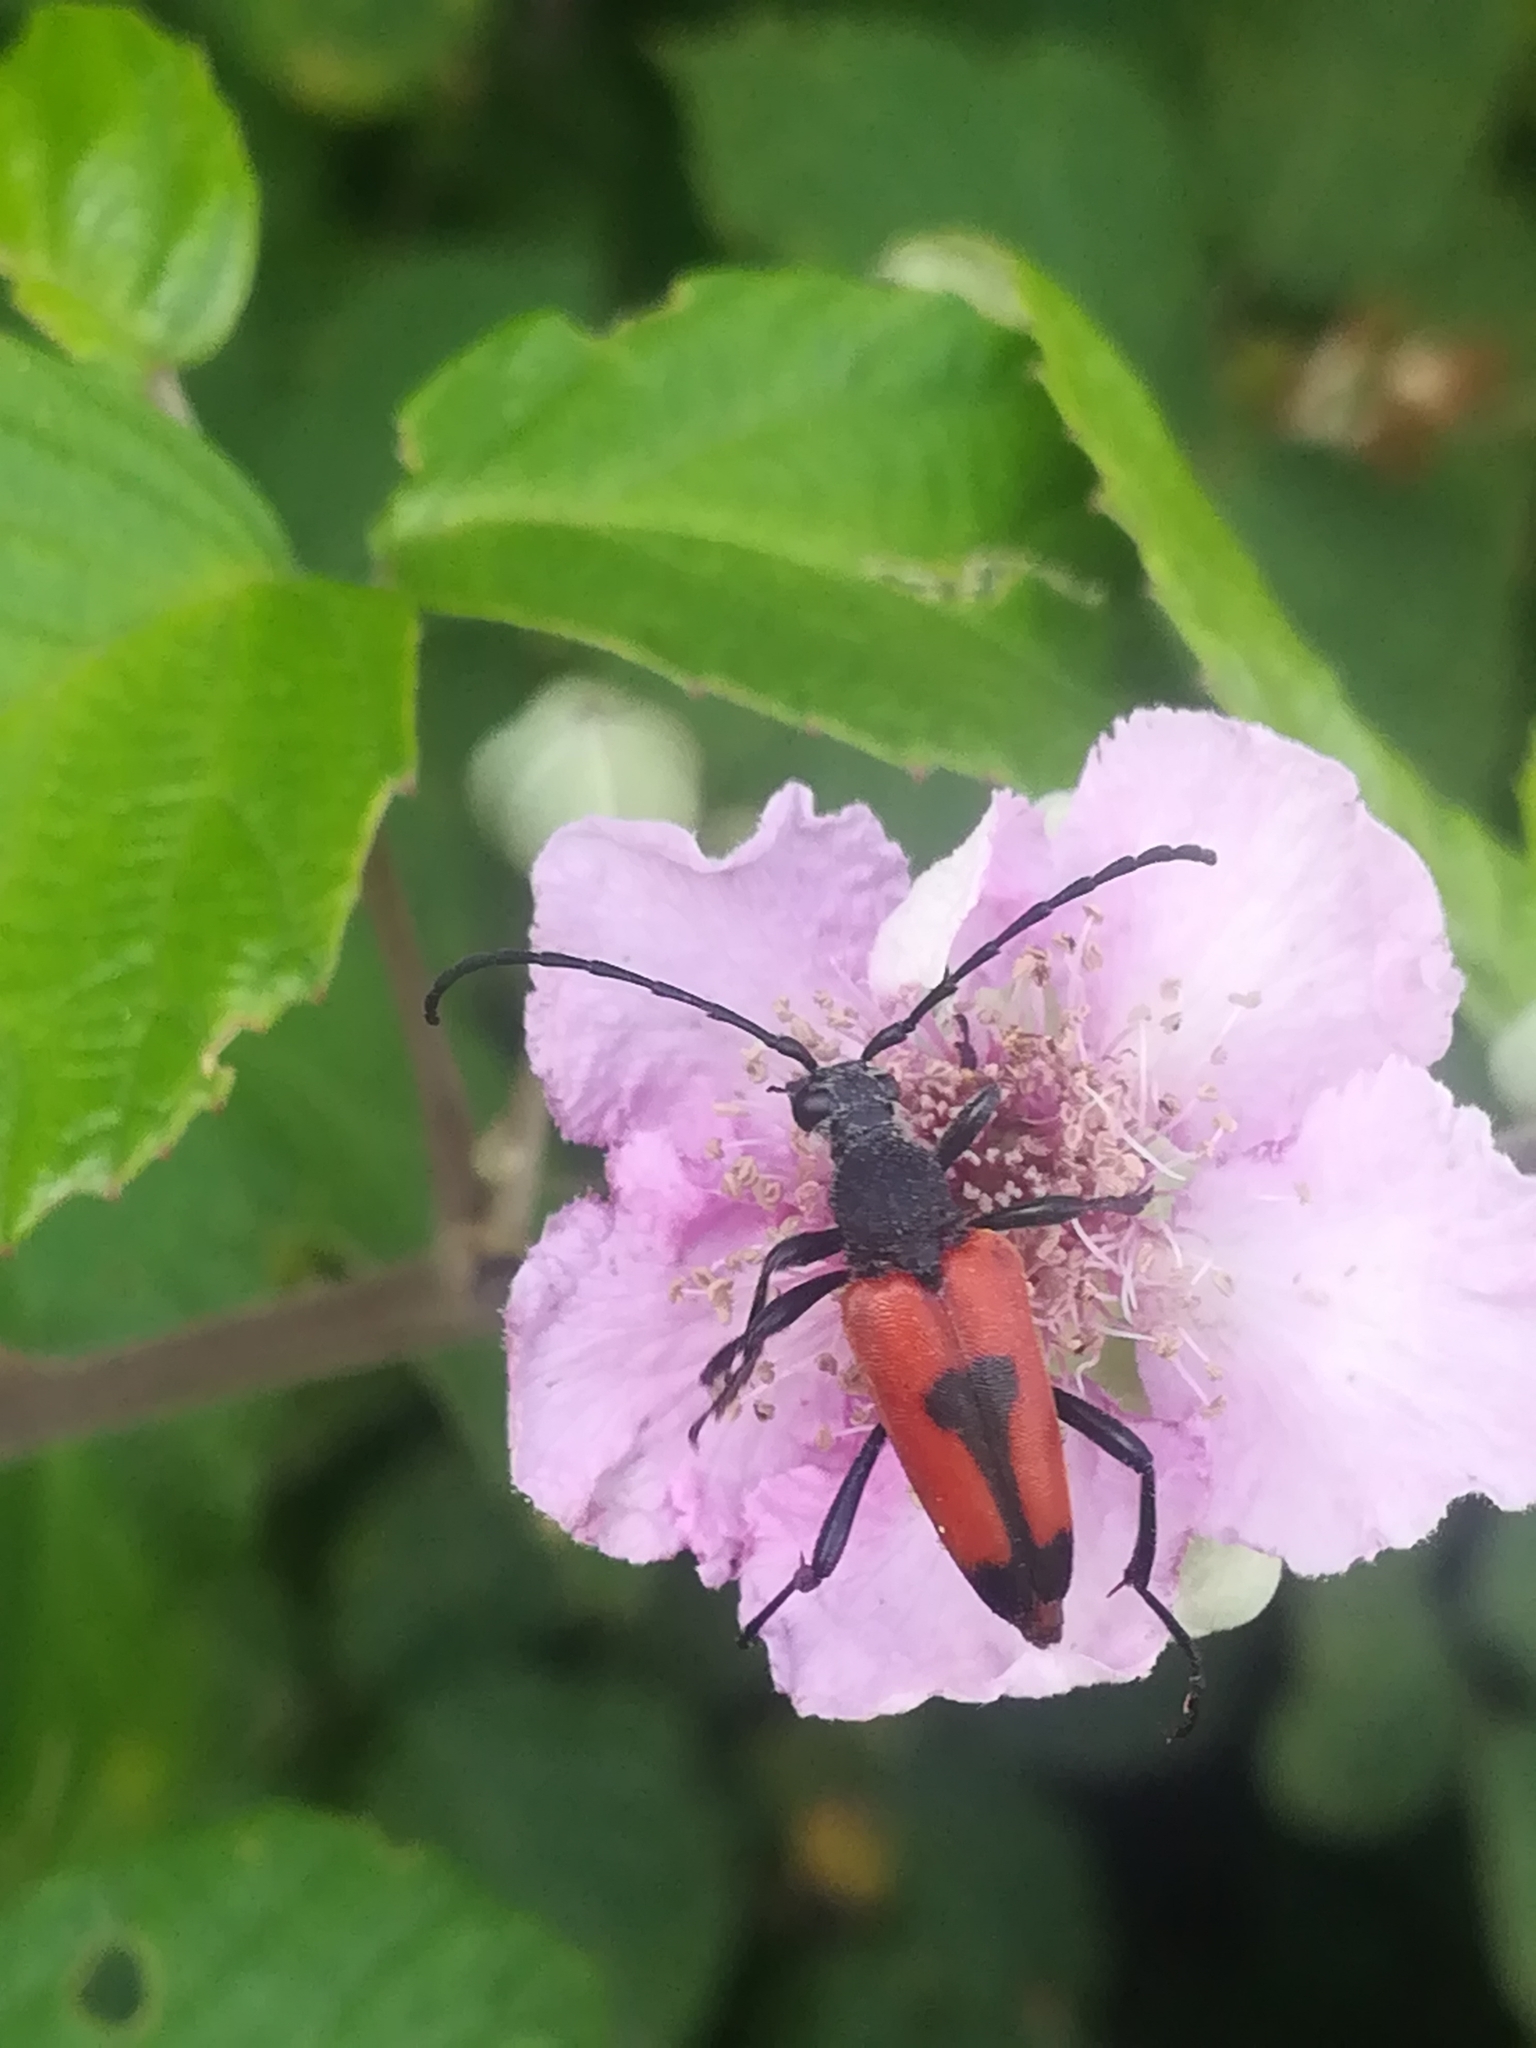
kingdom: Animalia
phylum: Arthropoda
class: Insecta
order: Coleoptera
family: Cerambycidae
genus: Stictoleptura
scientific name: Stictoleptura cordigera
